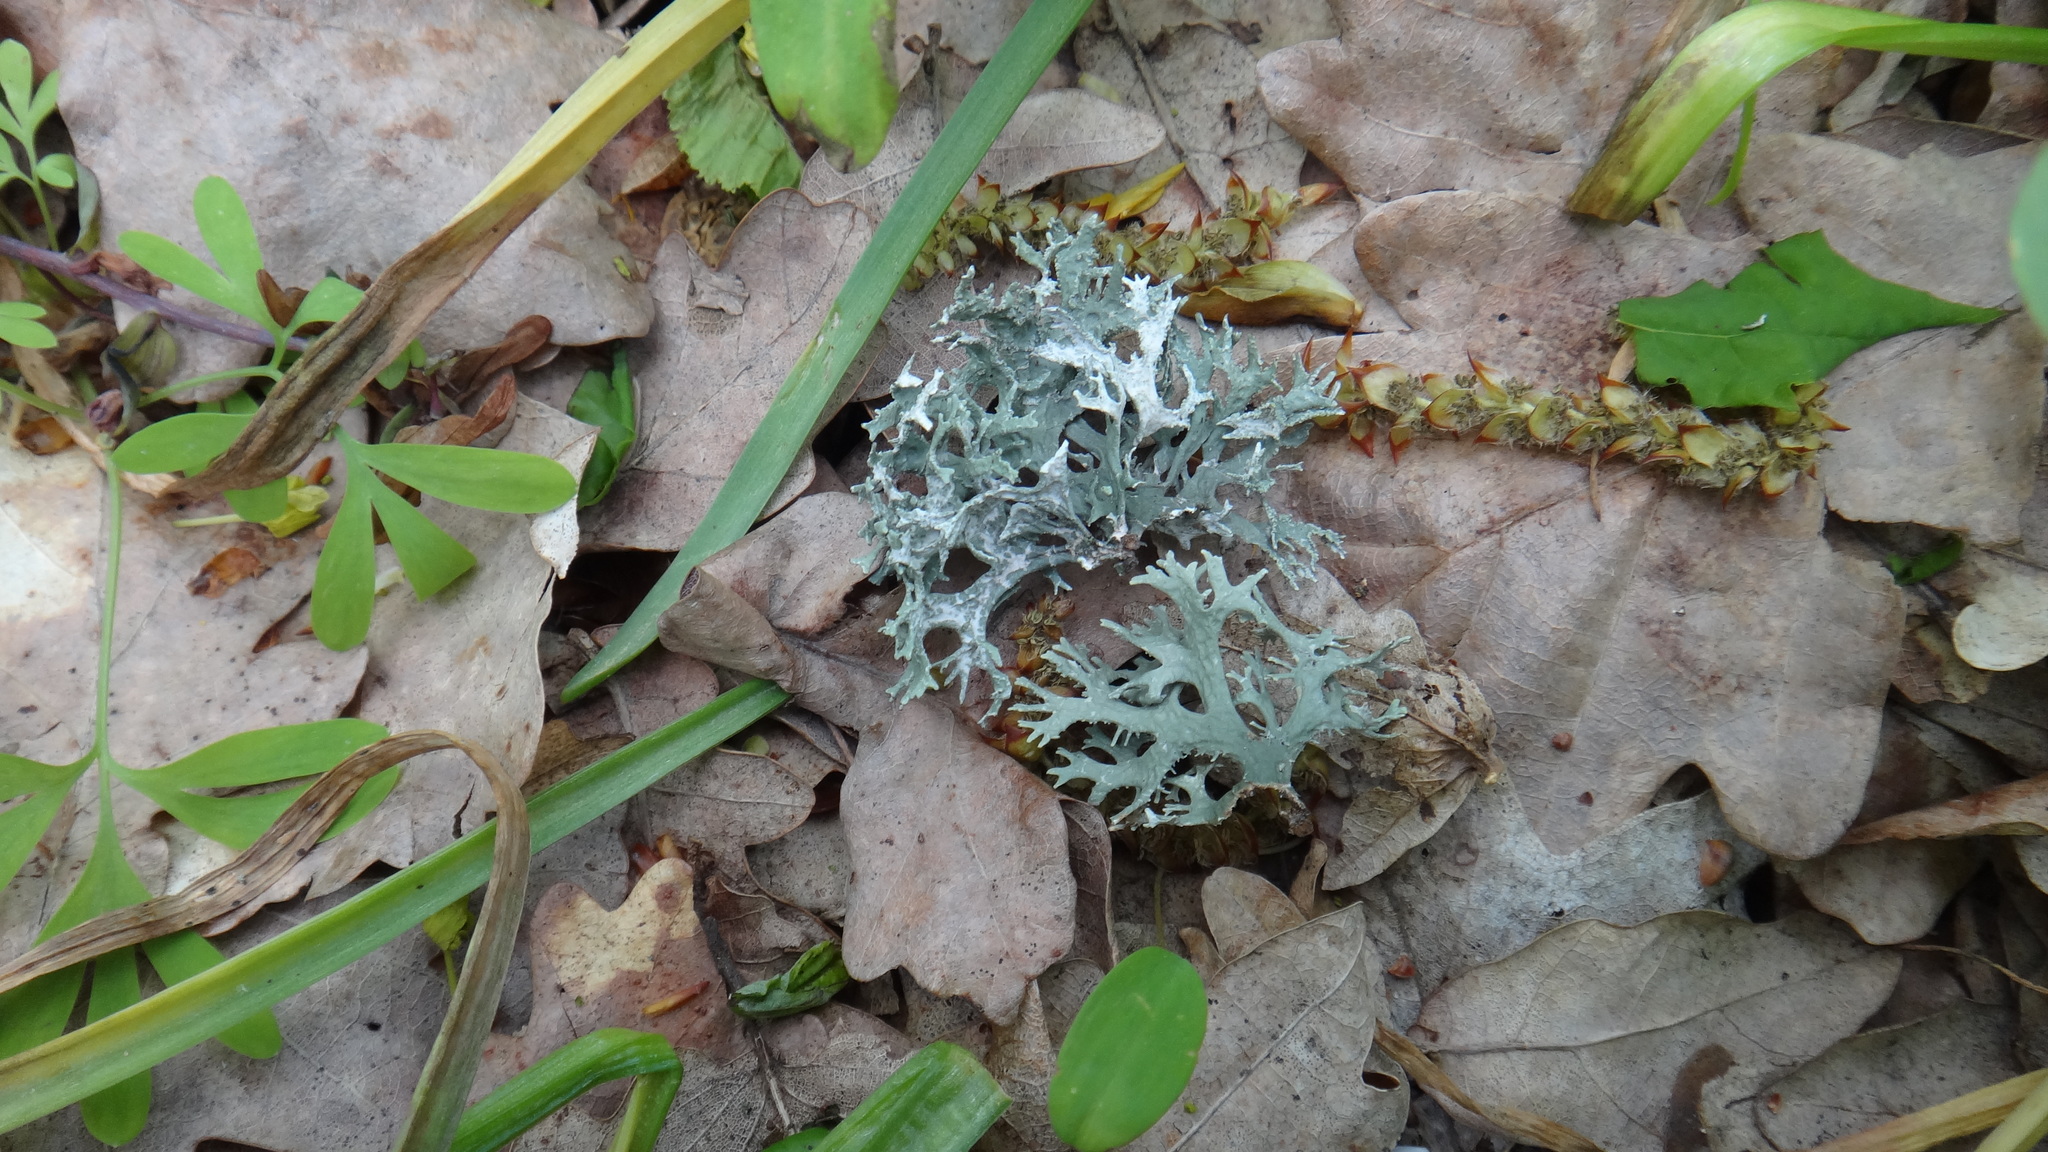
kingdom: Fungi
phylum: Ascomycota
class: Lecanoromycetes
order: Lecanorales
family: Parmeliaceae
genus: Evernia
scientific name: Evernia prunastri
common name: Oak moss
